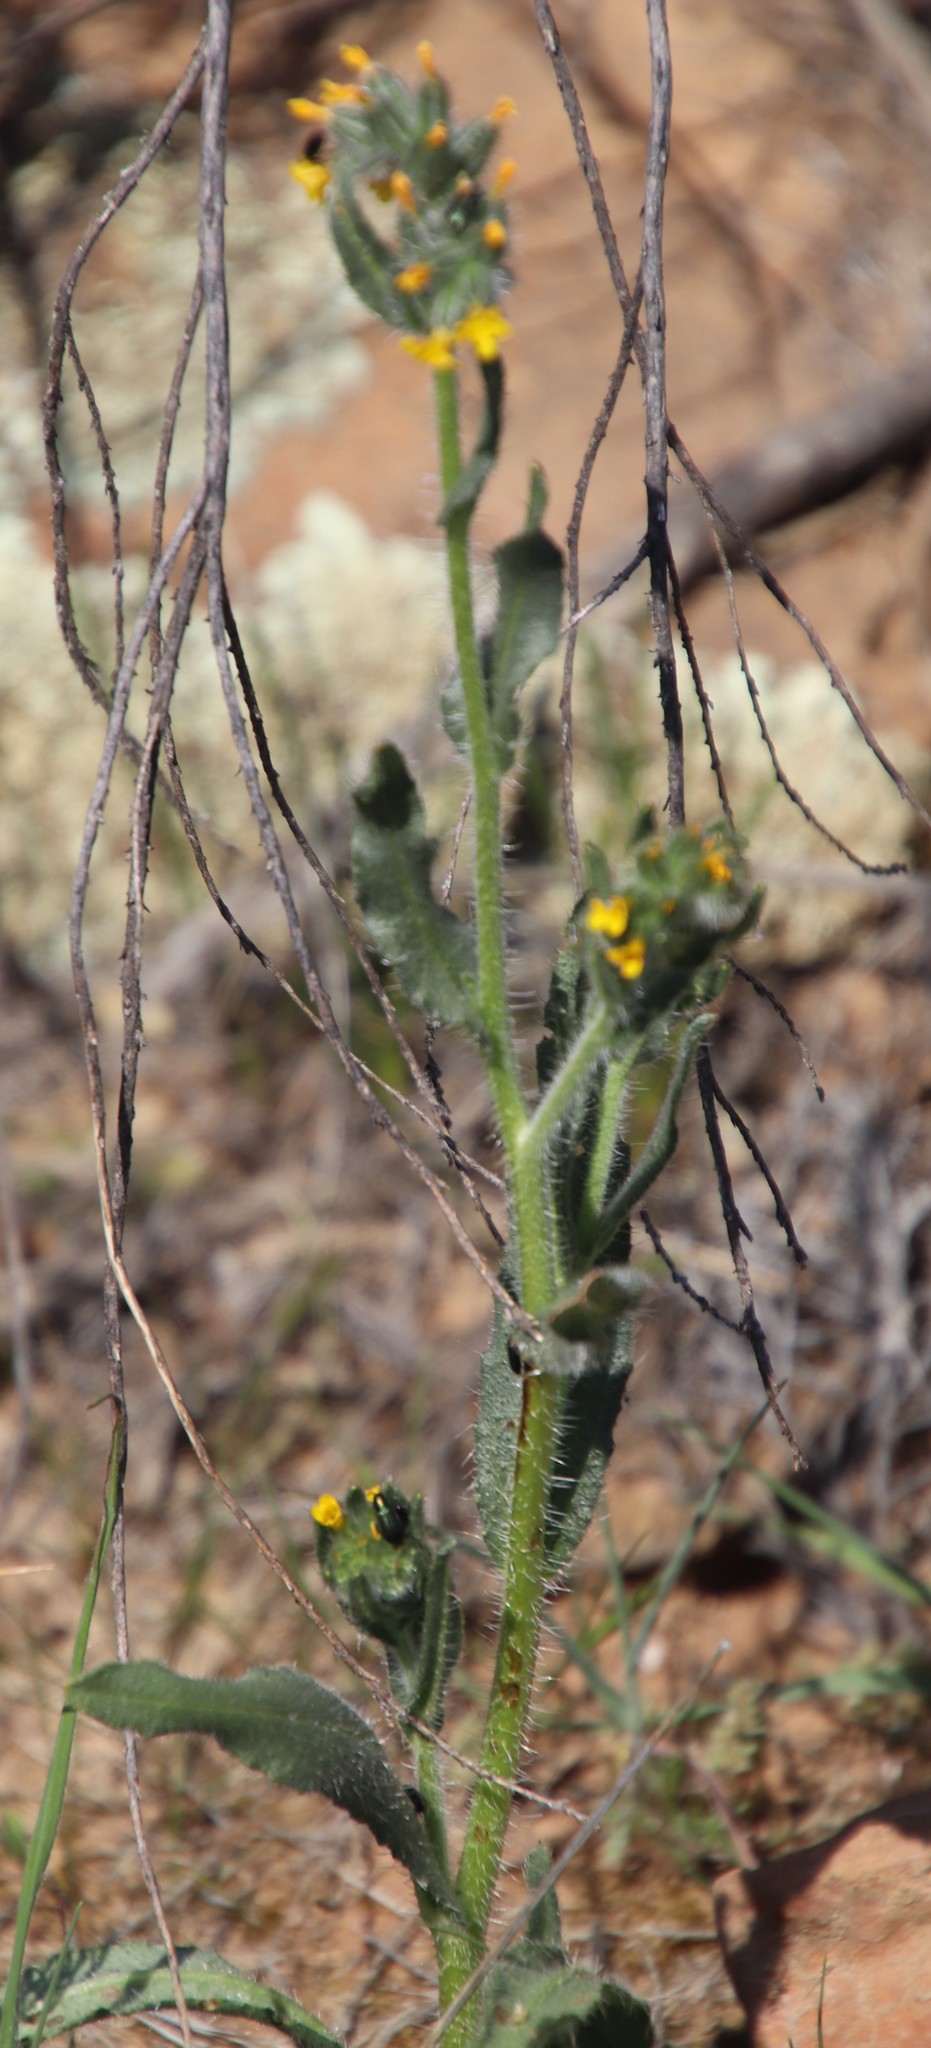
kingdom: Plantae
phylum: Tracheophyta
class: Magnoliopsida
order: Boraginales
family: Boraginaceae
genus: Amsinckia
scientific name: Amsinckia menziesii
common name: Menzies' fiddleneck
